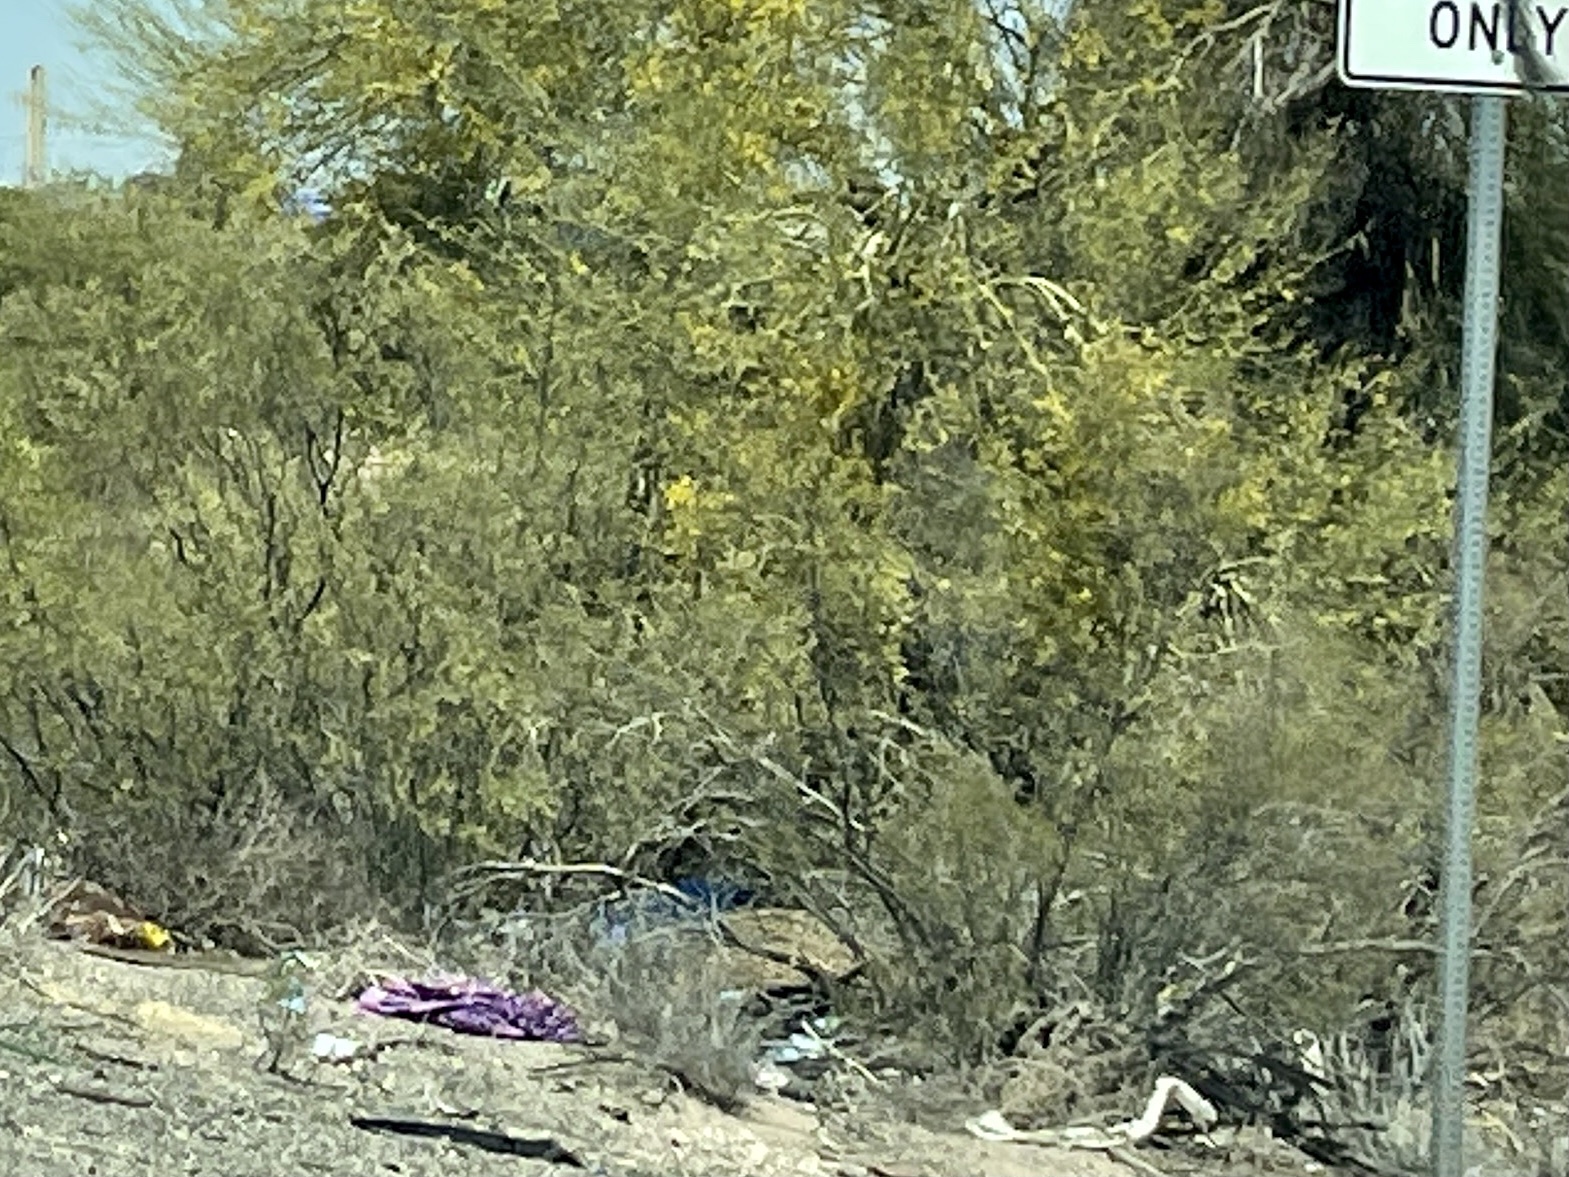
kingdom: Plantae
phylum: Tracheophyta
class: Magnoliopsida
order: Zygophyllales
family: Zygophyllaceae
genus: Larrea
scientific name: Larrea tridentata
